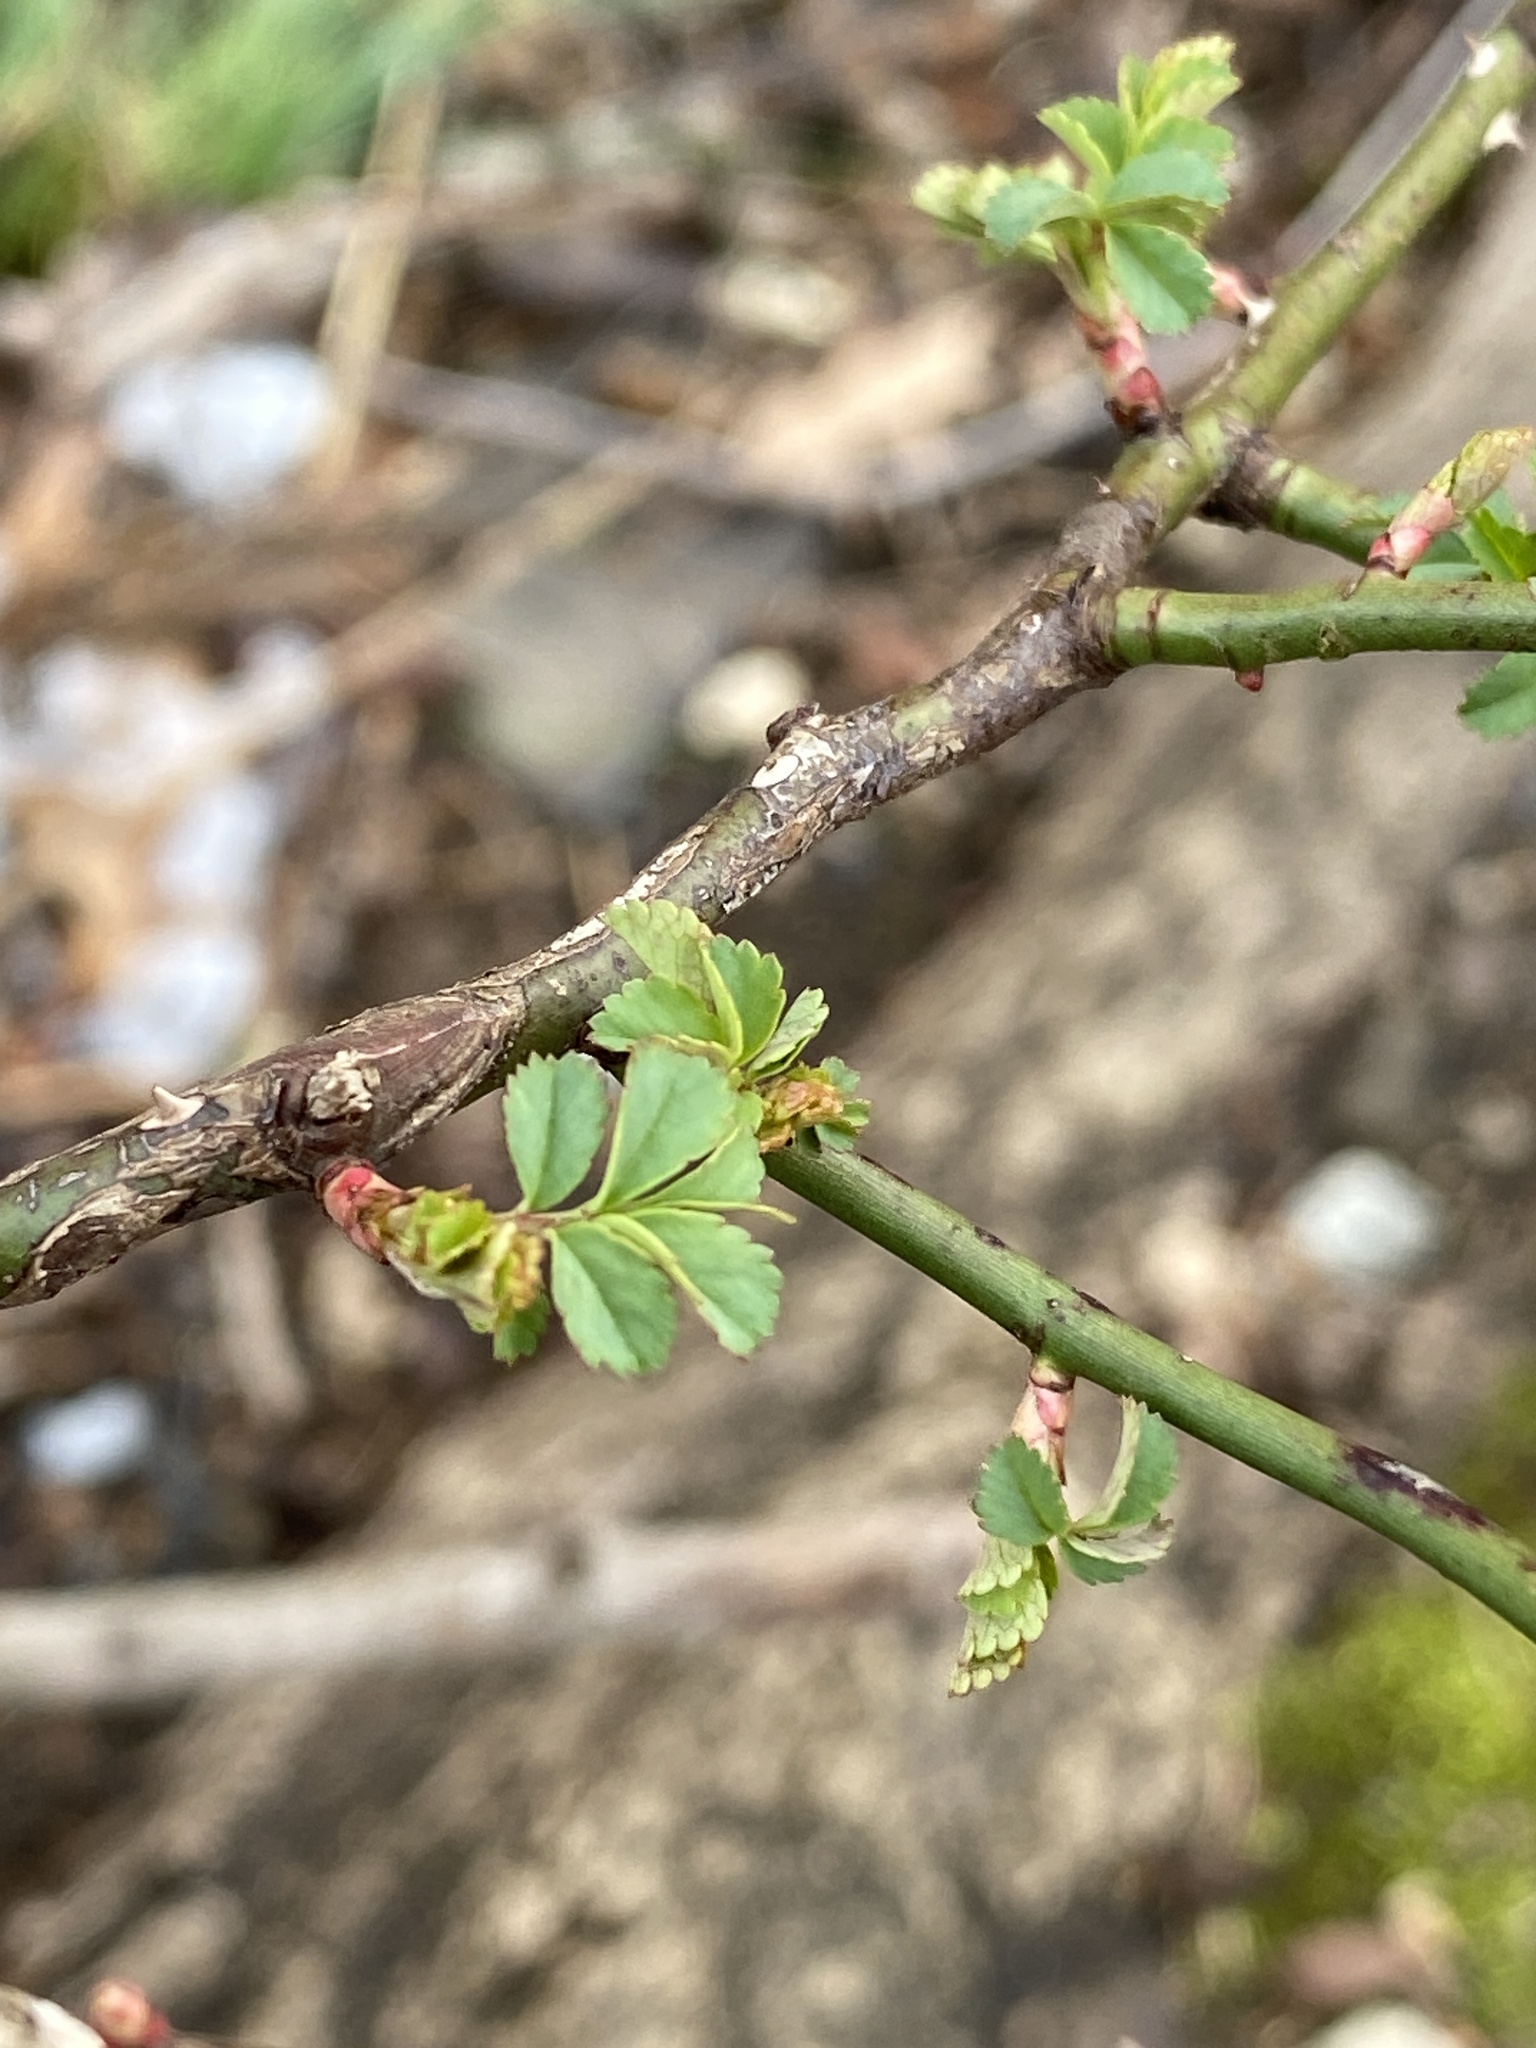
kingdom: Plantae
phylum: Tracheophyta
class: Magnoliopsida
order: Rosales
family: Rosaceae
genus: Rosa
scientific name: Rosa multiflora
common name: Multiflora rose
